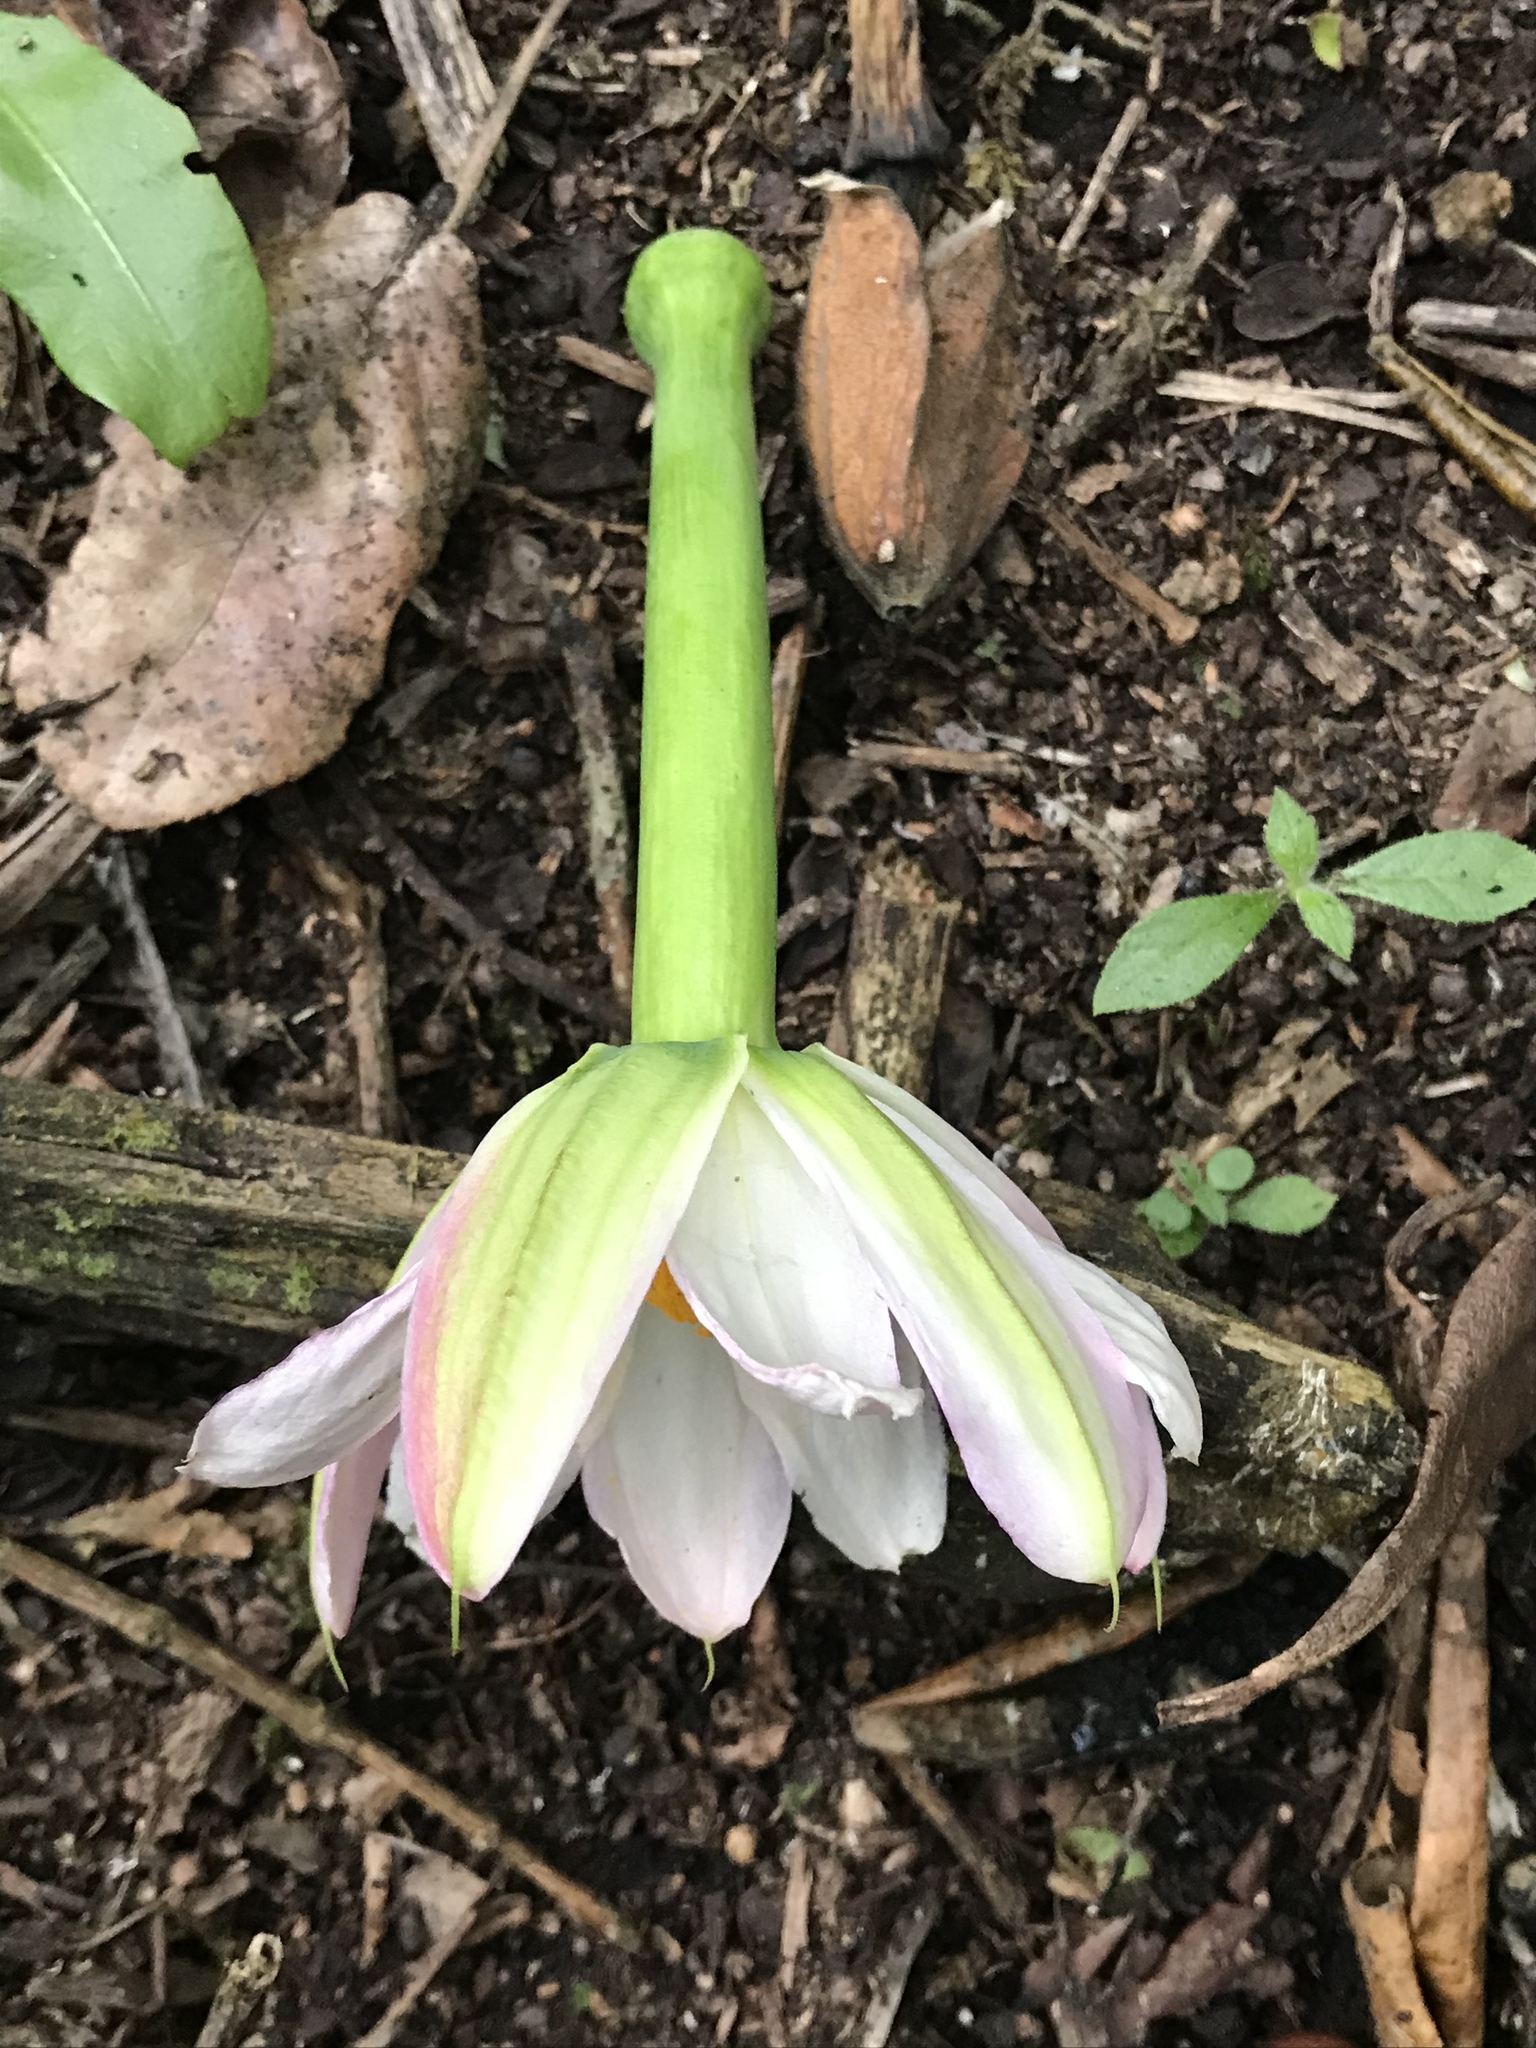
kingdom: Plantae
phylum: Tracheophyta
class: Magnoliopsida
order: Malpighiales
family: Passifloraceae
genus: Passiflora
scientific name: Passiflora tripartita
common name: Banana poka
